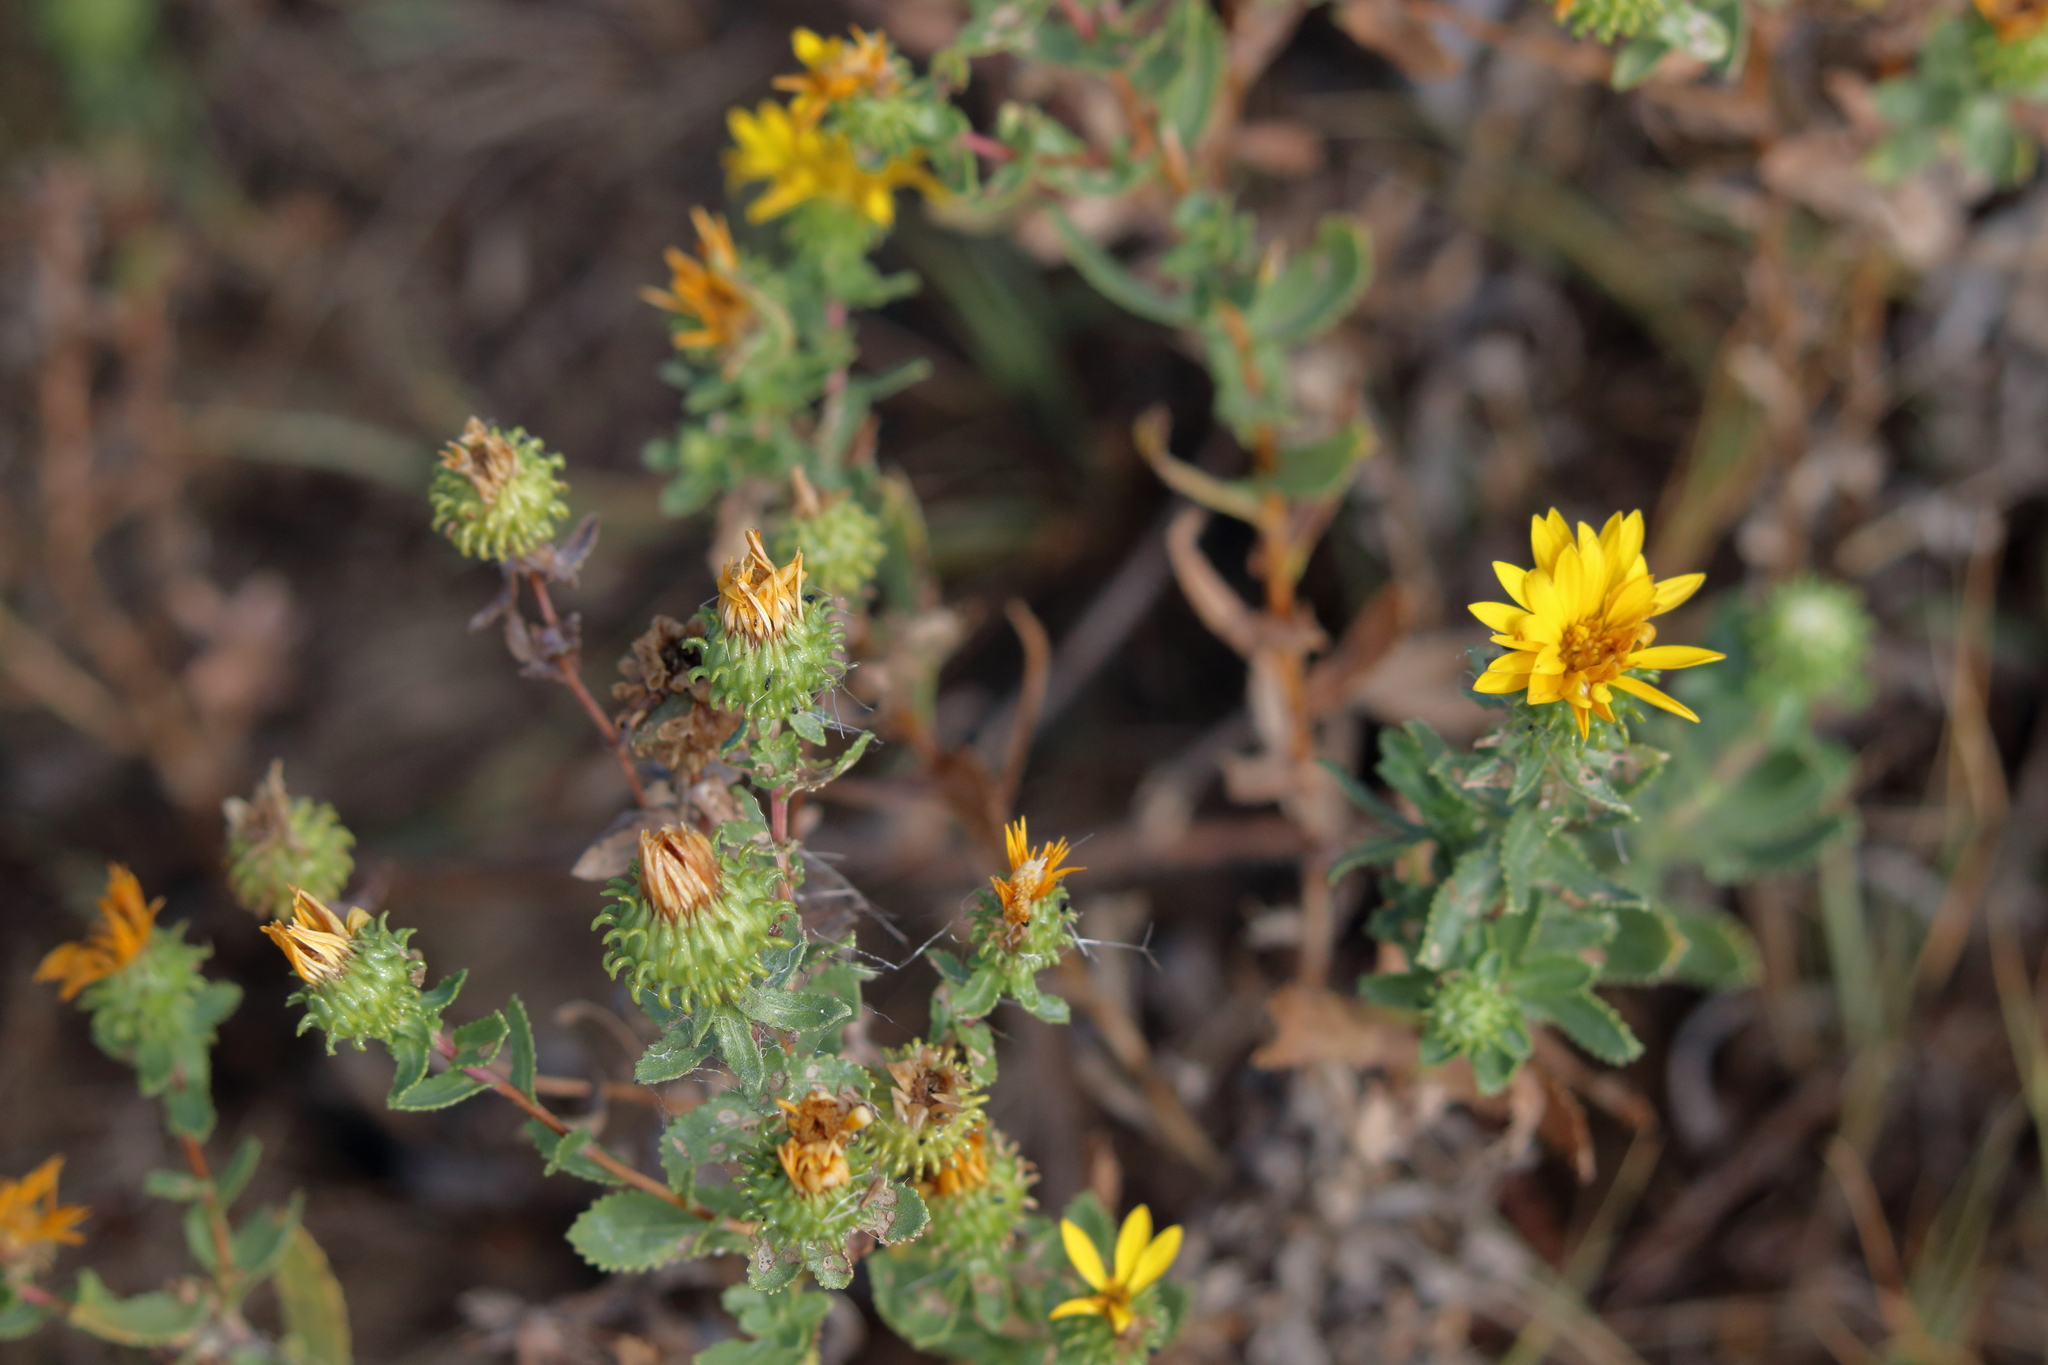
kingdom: Plantae
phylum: Tracheophyta
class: Magnoliopsida
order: Asterales
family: Asteraceae
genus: Grindelia
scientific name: Grindelia squarrosa
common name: Curly-cup gumweed
